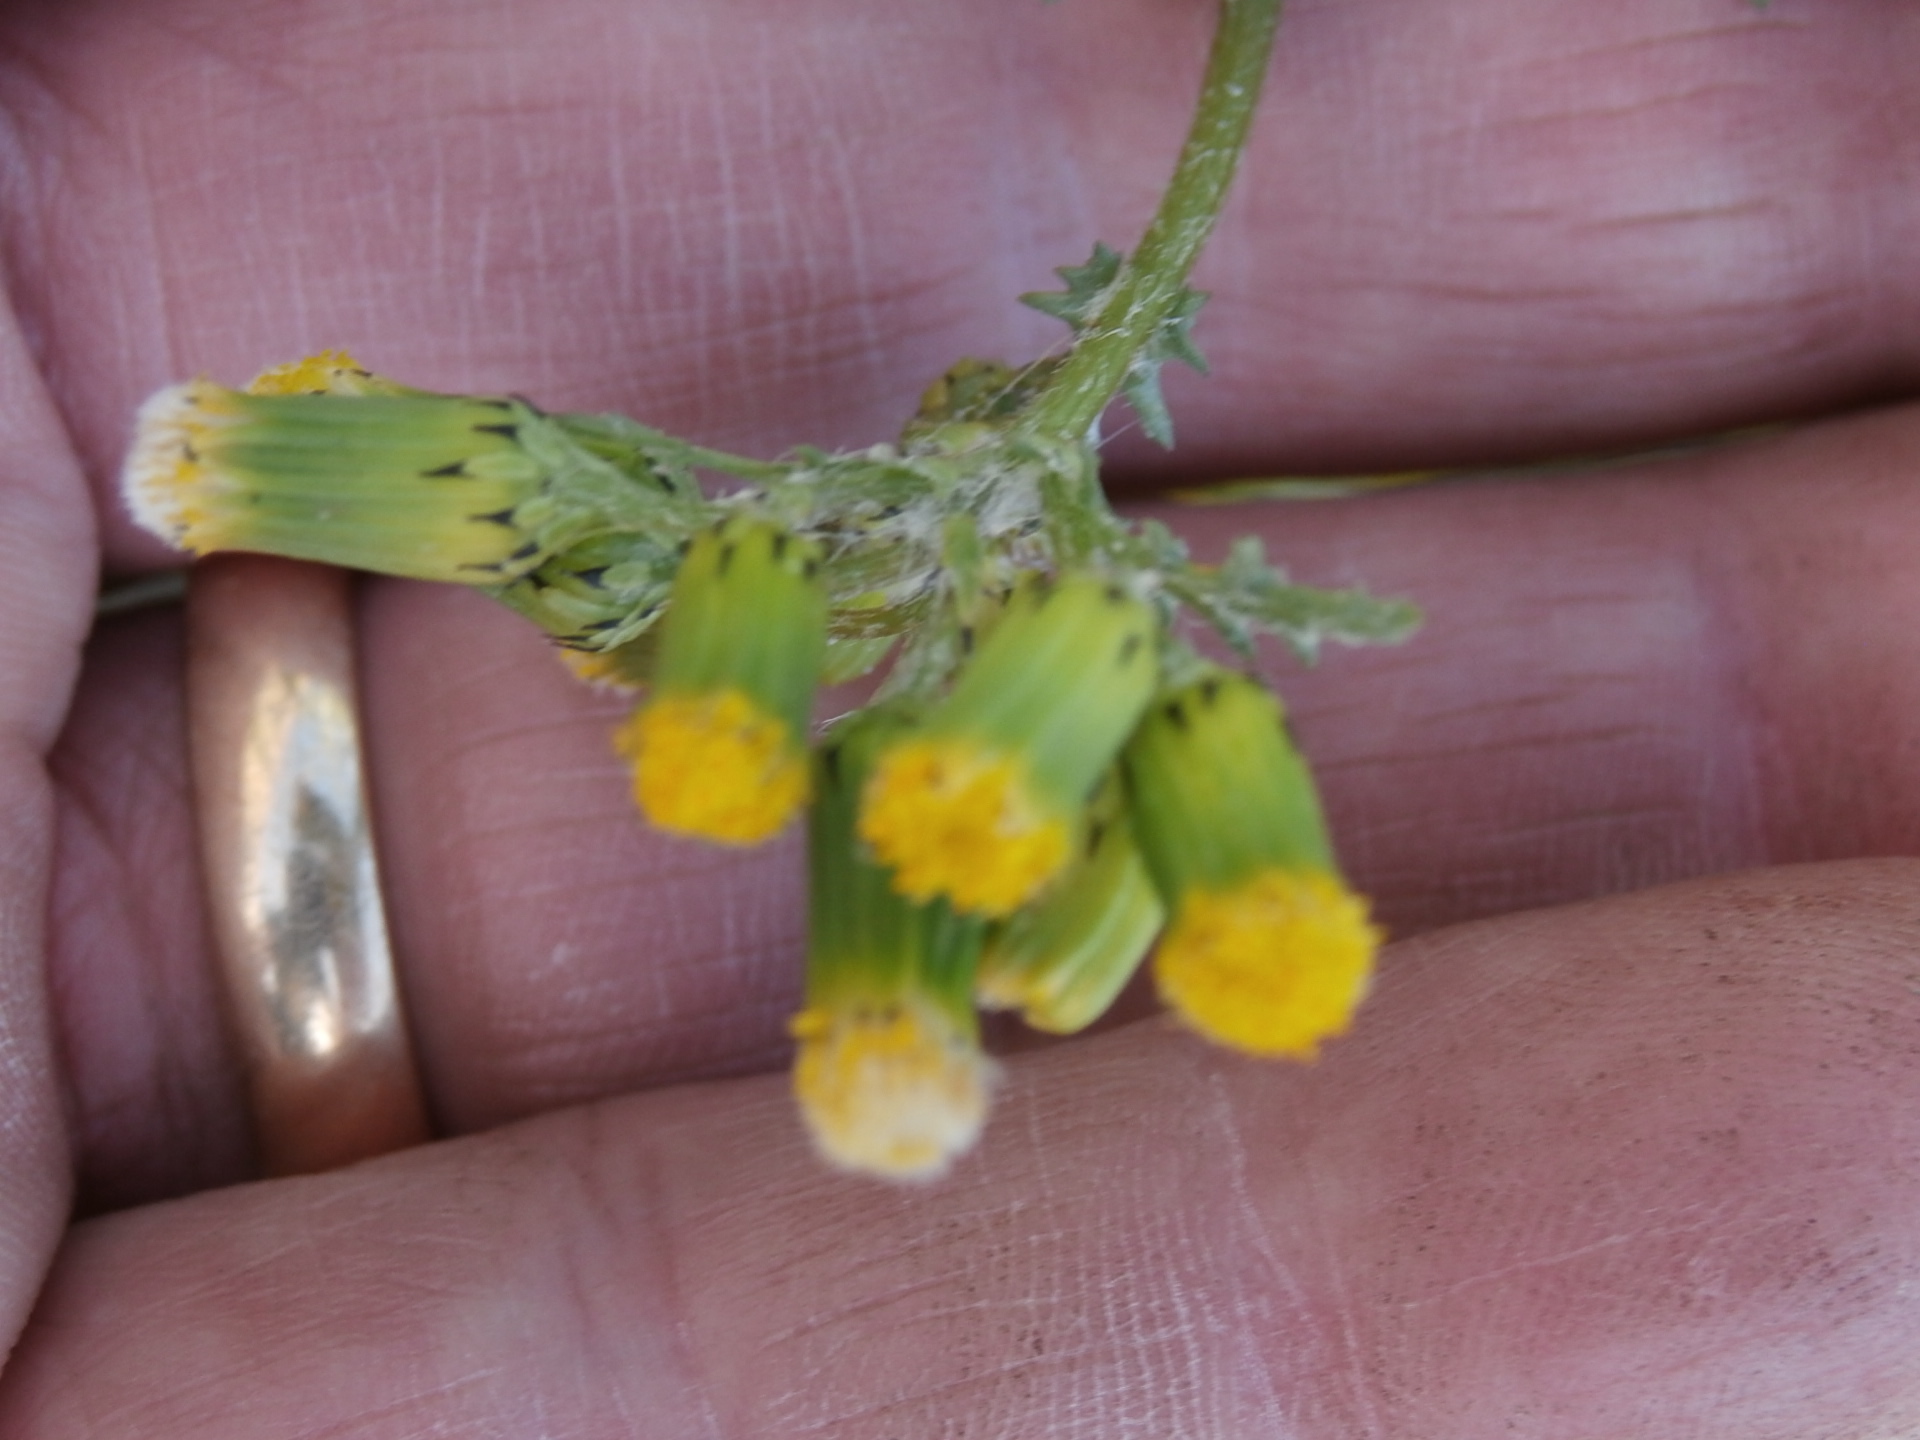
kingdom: Plantae
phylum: Tracheophyta
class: Magnoliopsida
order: Asterales
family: Asteraceae
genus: Senecio
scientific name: Senecio vulgaris
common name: Old-man-in-the-spring
